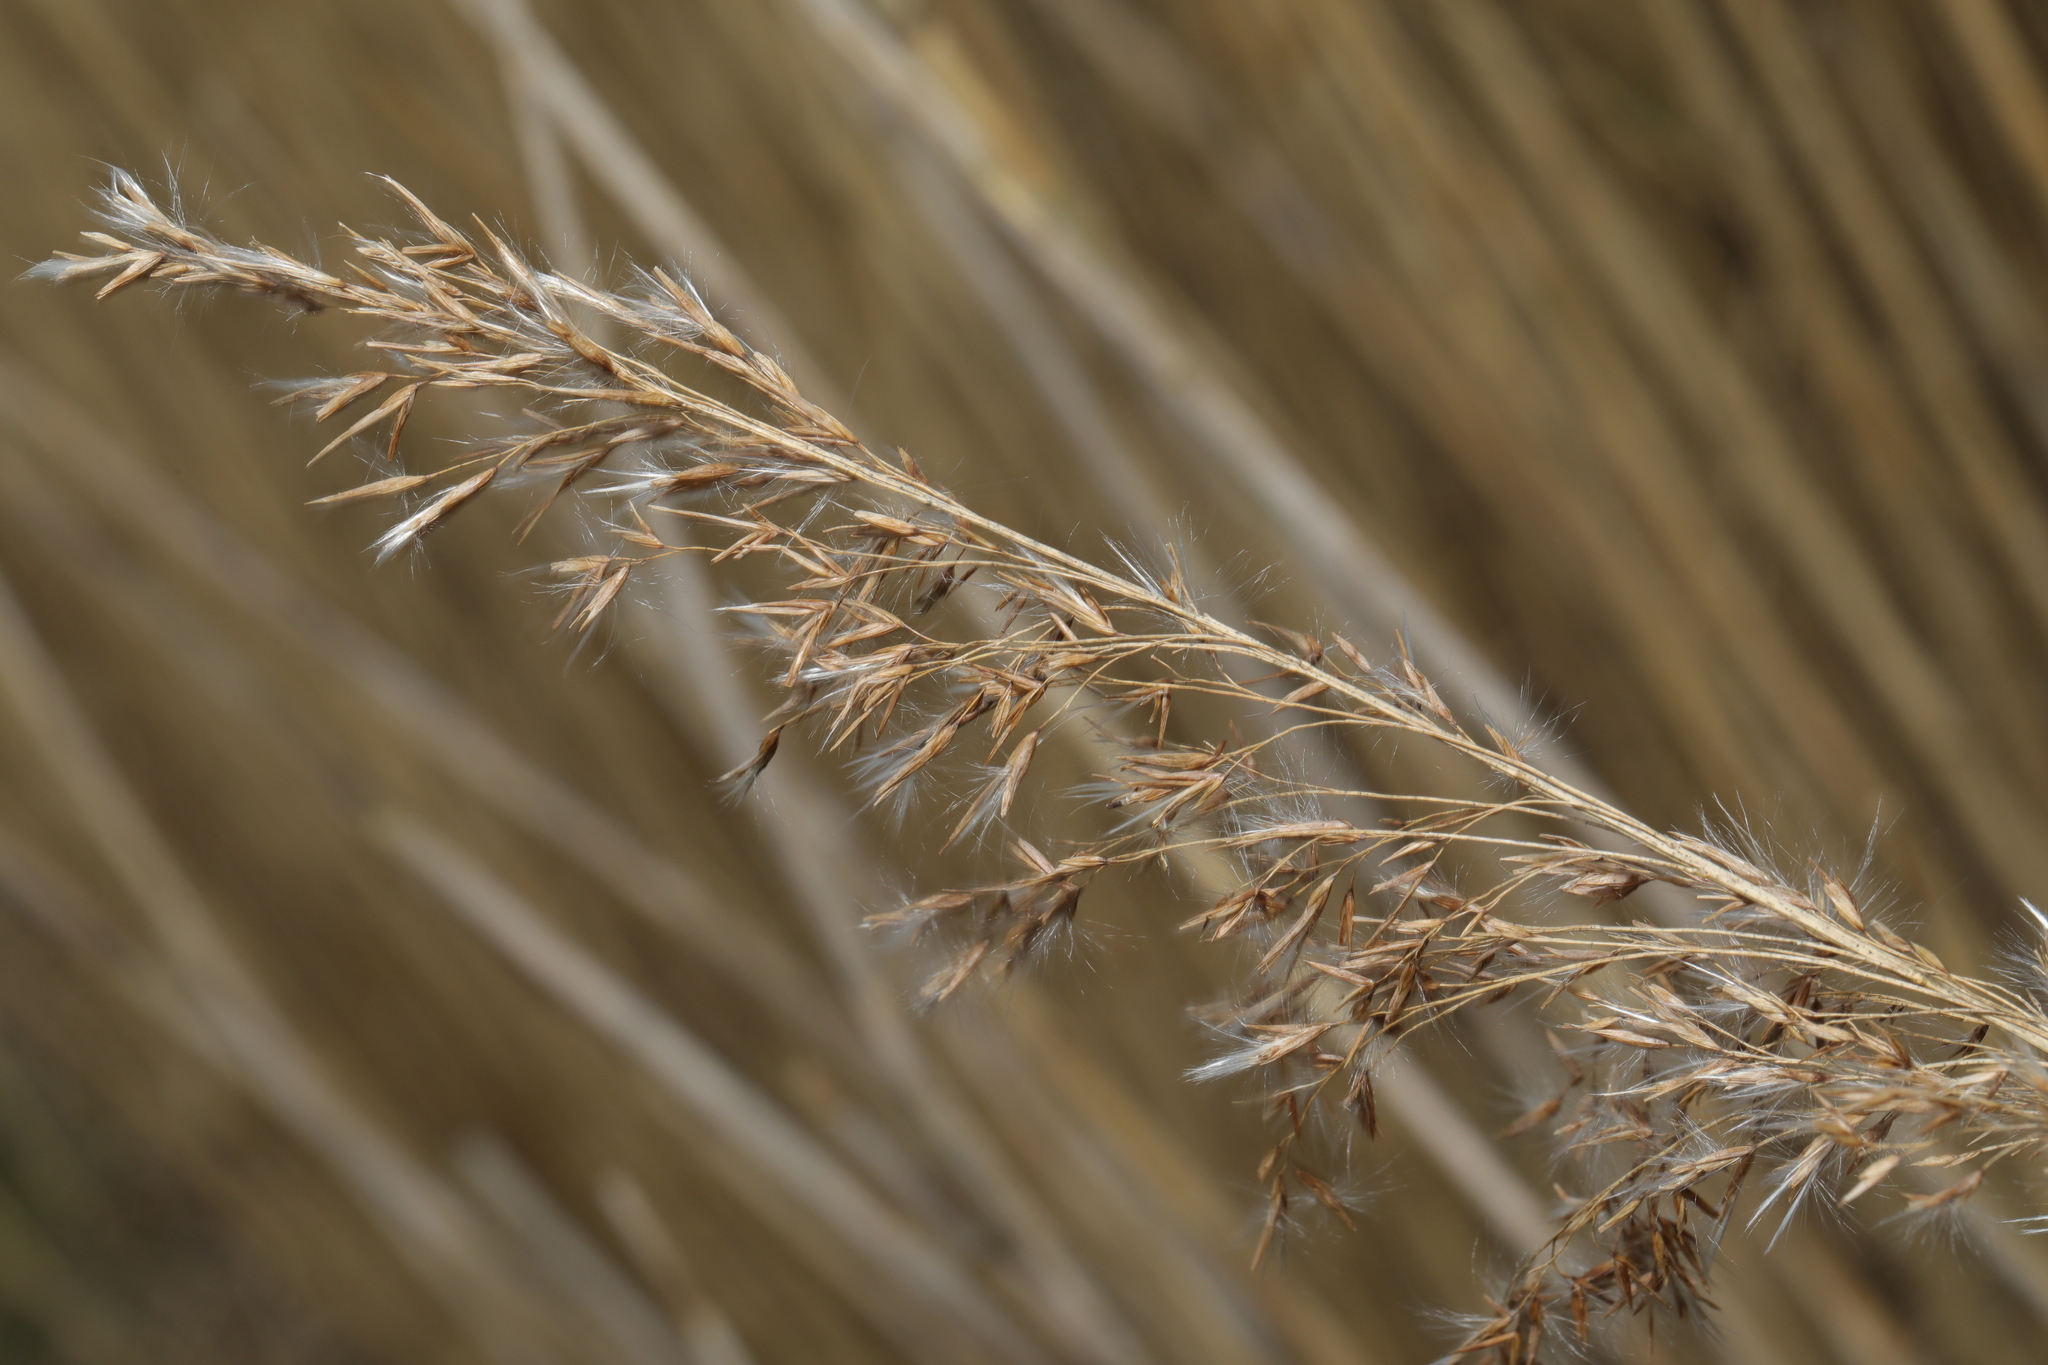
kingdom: Plantae
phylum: Tracheophyta
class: Liliopsida
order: Poales
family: Poaceae
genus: Phragmites
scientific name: Phragmites australis
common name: Common reed
